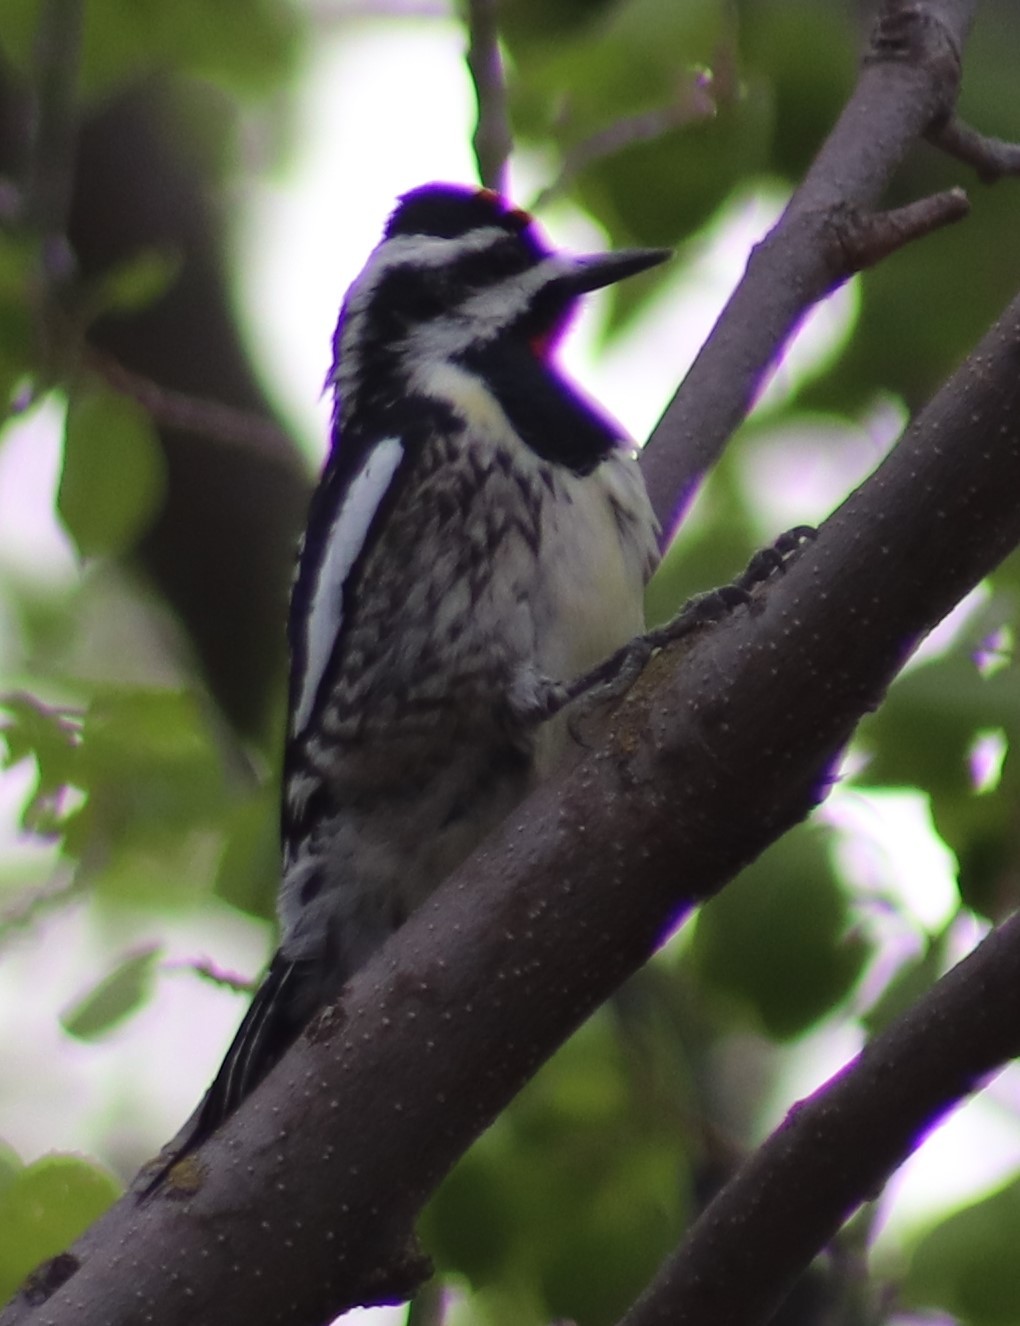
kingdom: Animalia
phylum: Chordata
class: Aves
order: Piciformes
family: Picidae
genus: Sphyrapicus
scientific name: Sphyrapicus varius
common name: Yellow-bellied sapsucker
